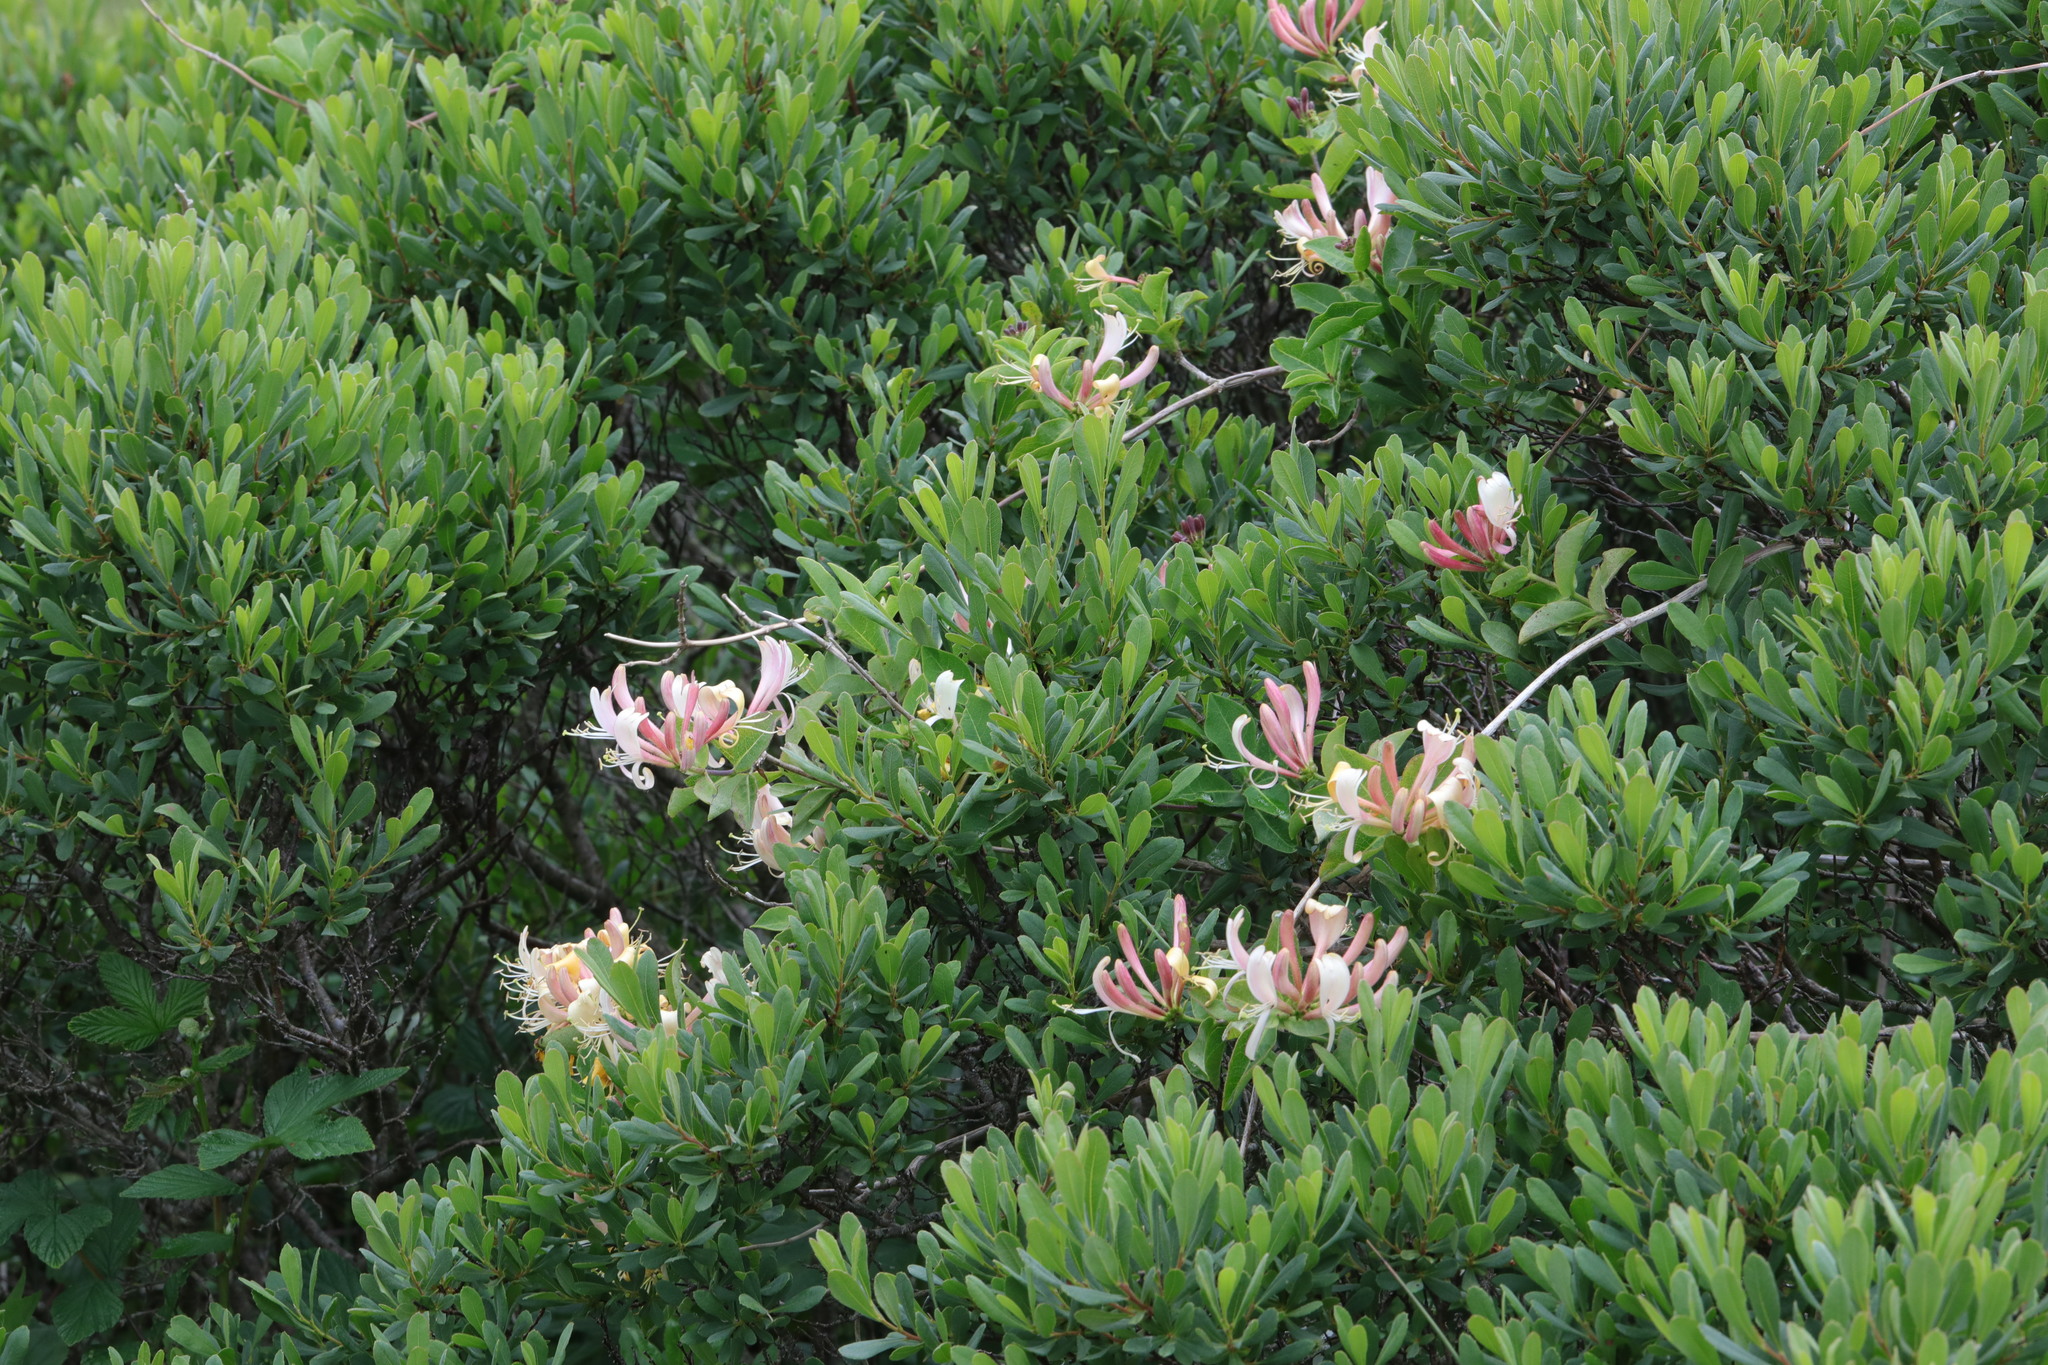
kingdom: Plantae
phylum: Tracheophyta
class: Magnoliopsida
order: Dipsacales
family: Caprifoliaceae
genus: Lonicera
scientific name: Lonicera periclymenum
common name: European honeysuckle
